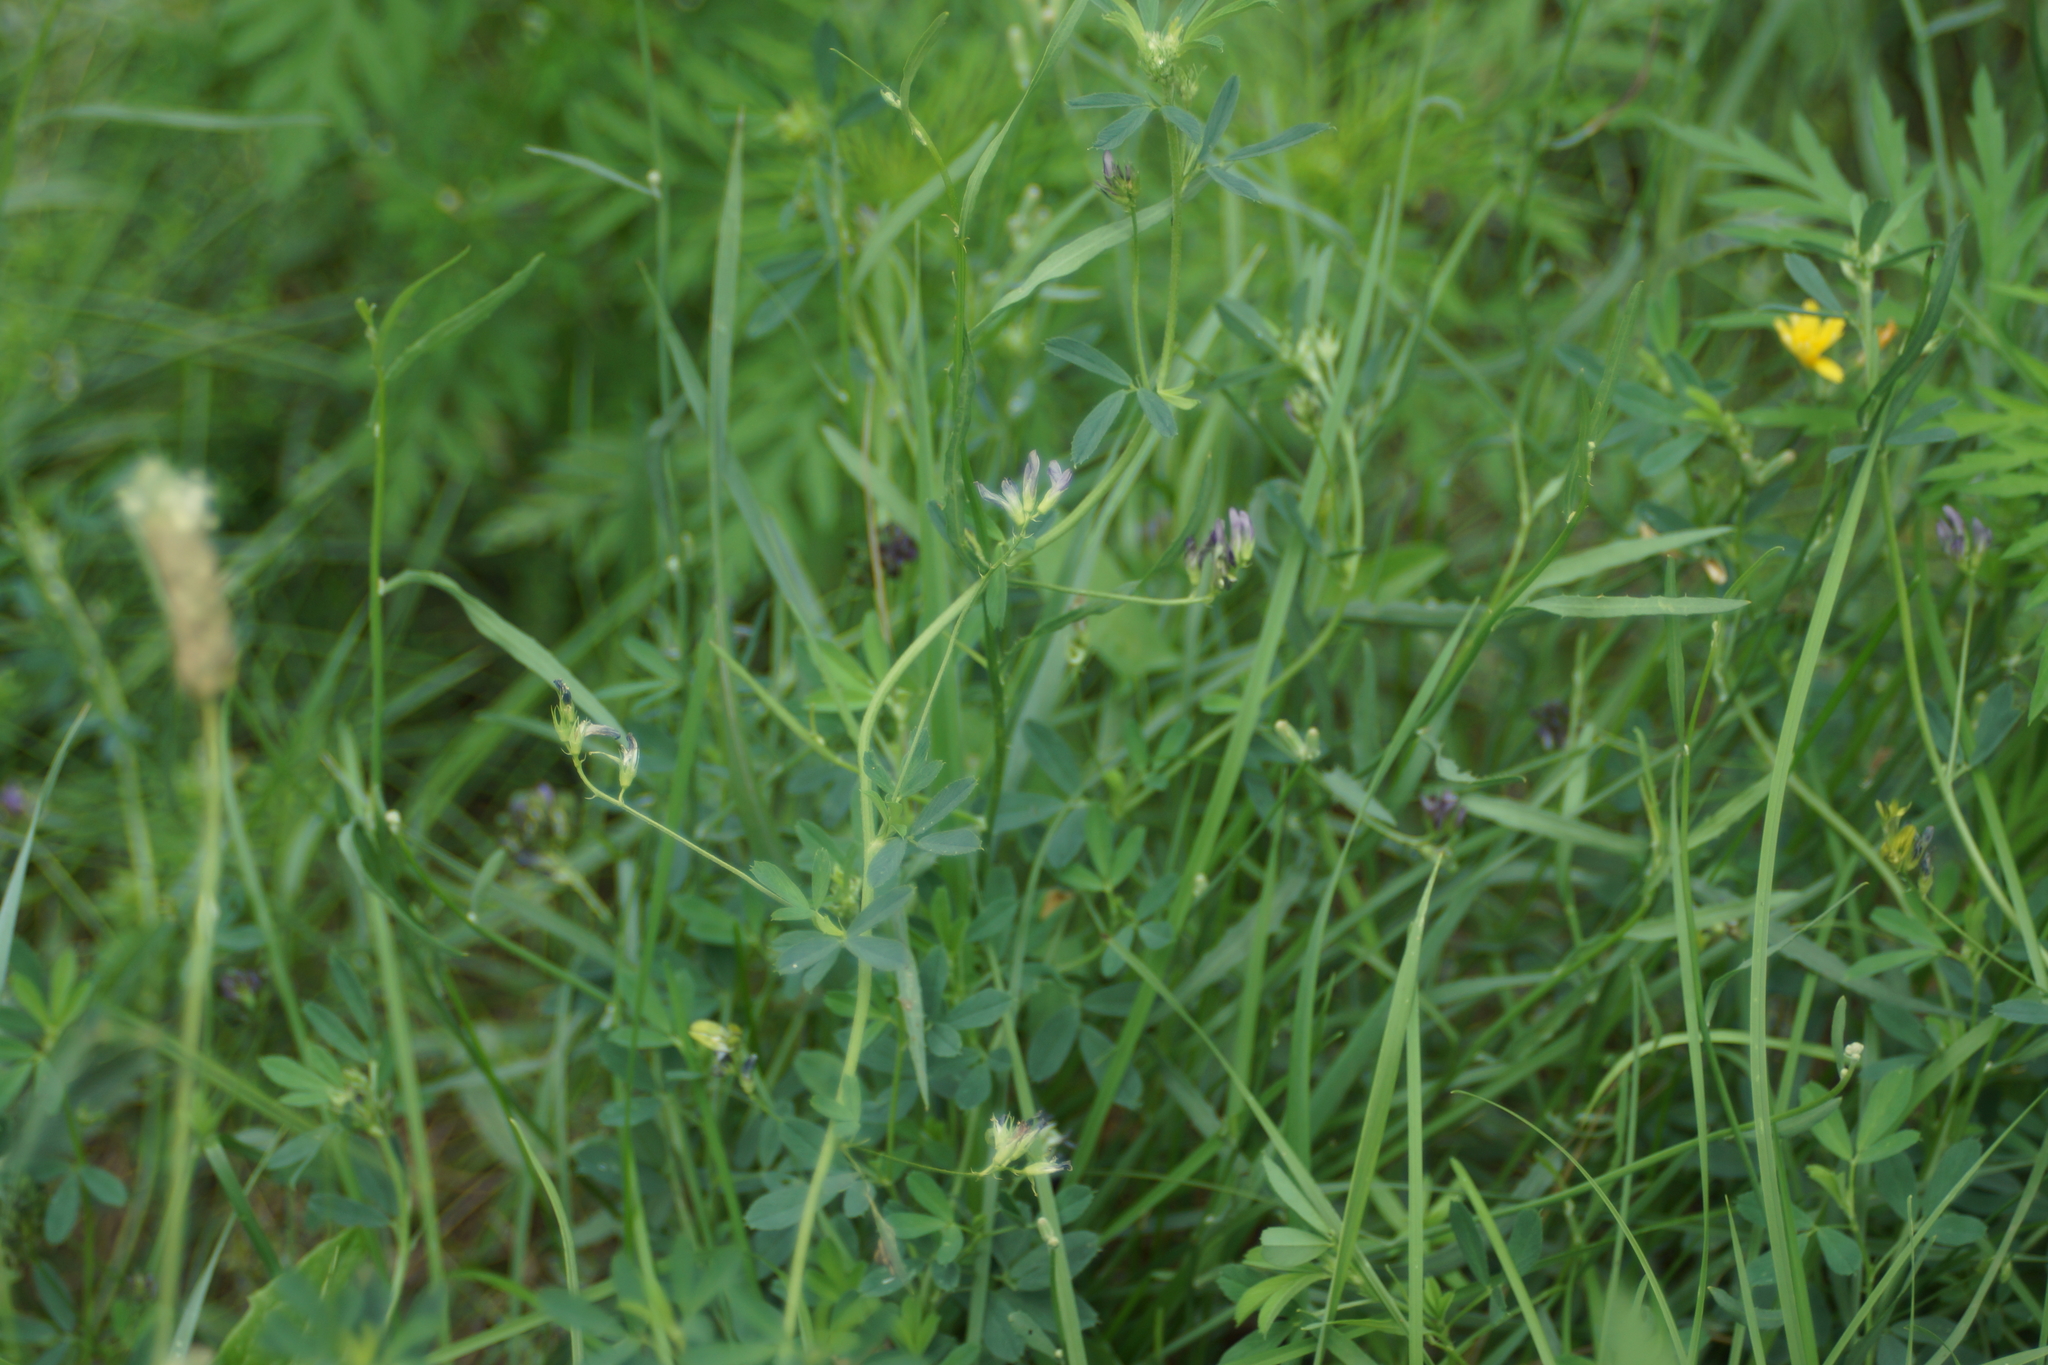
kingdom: Plantae
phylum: Tracheophyta
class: Magnoliopsida
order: Fabales
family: Fabaceae
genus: Medicago
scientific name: Medicago sativa
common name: Alfalfa
